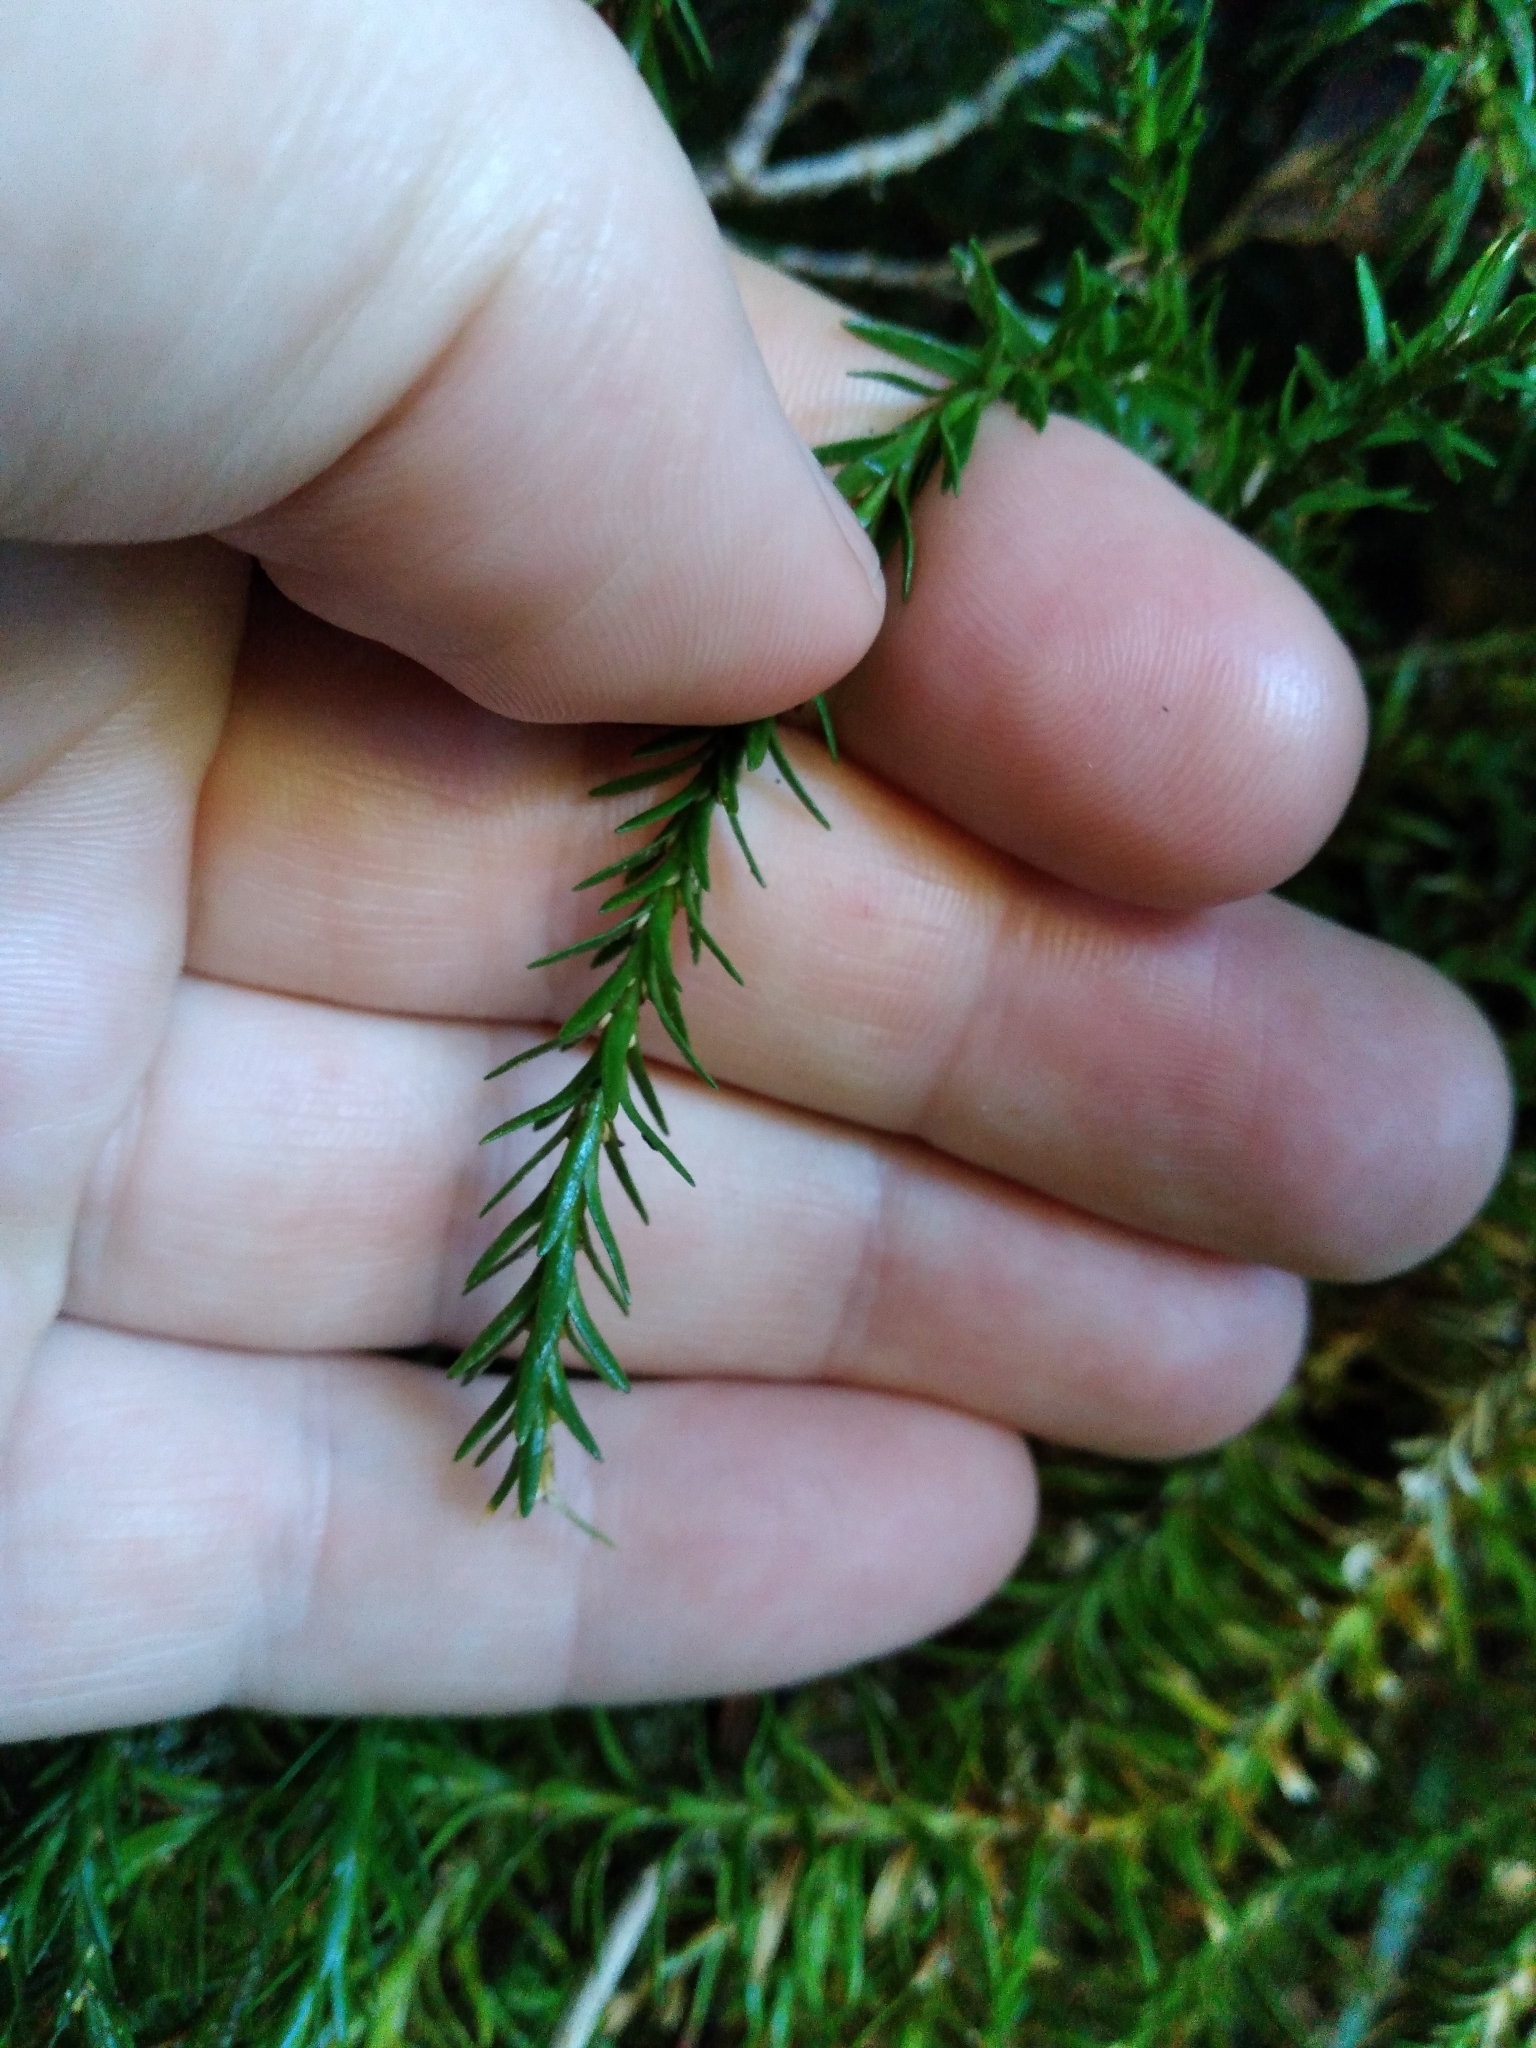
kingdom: Plantae
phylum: Tracheophyta
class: Lycopodiopsida
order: Lycopodiales
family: Lycopodiaceae
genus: Phlegmariurus
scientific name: Phlegmariurus varius
